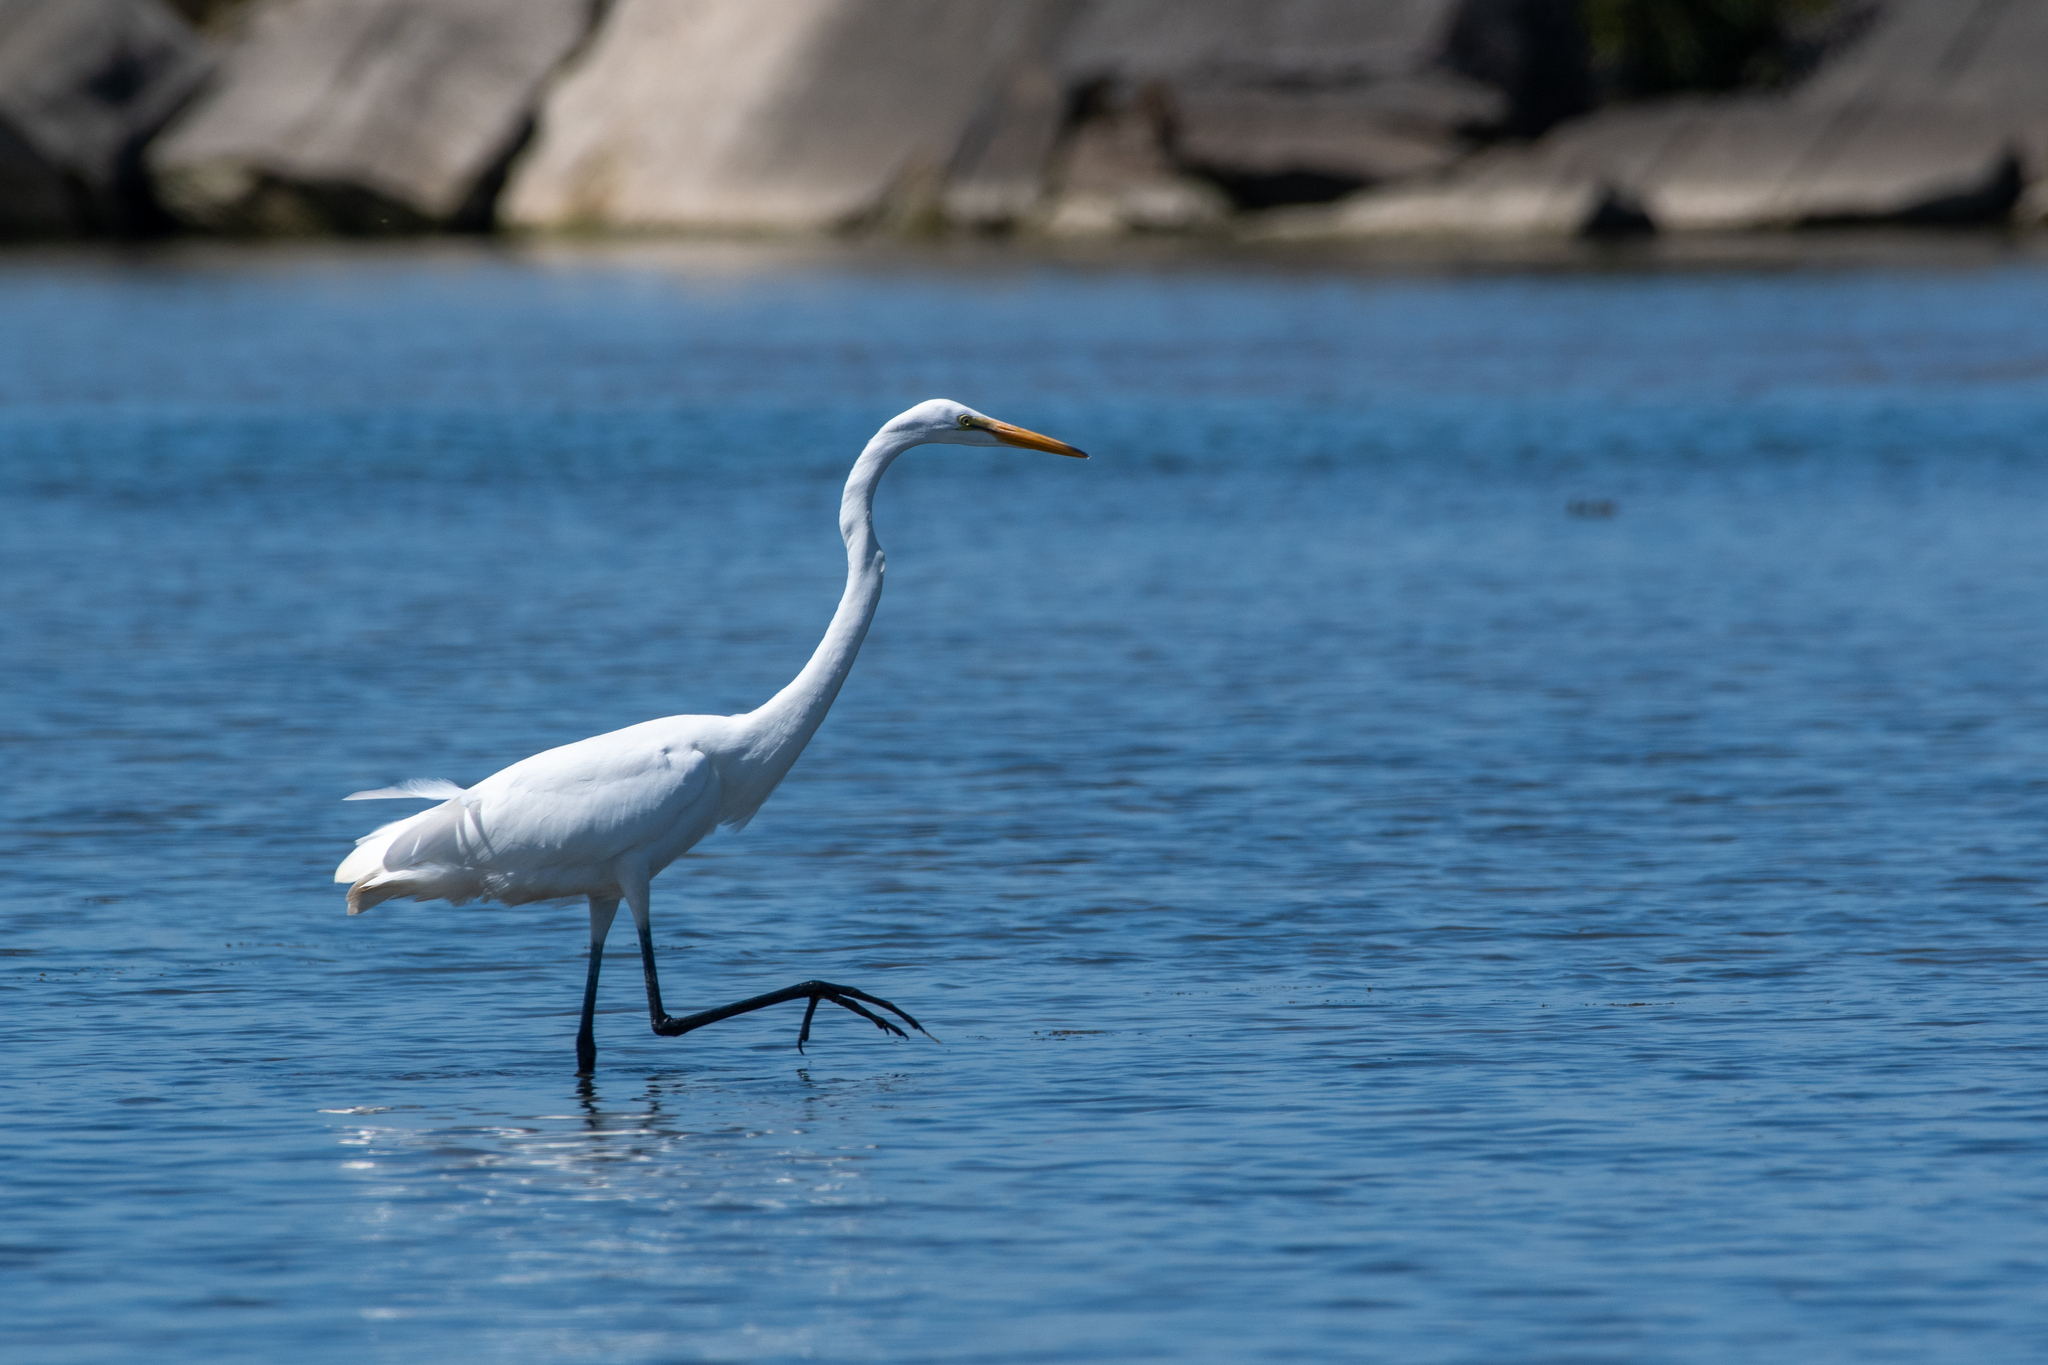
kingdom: Animalia
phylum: Chordata
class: Aves
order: Pelecaniformes
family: Ardeidae
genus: Ardea
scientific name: Ardea alba
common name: Great egret
